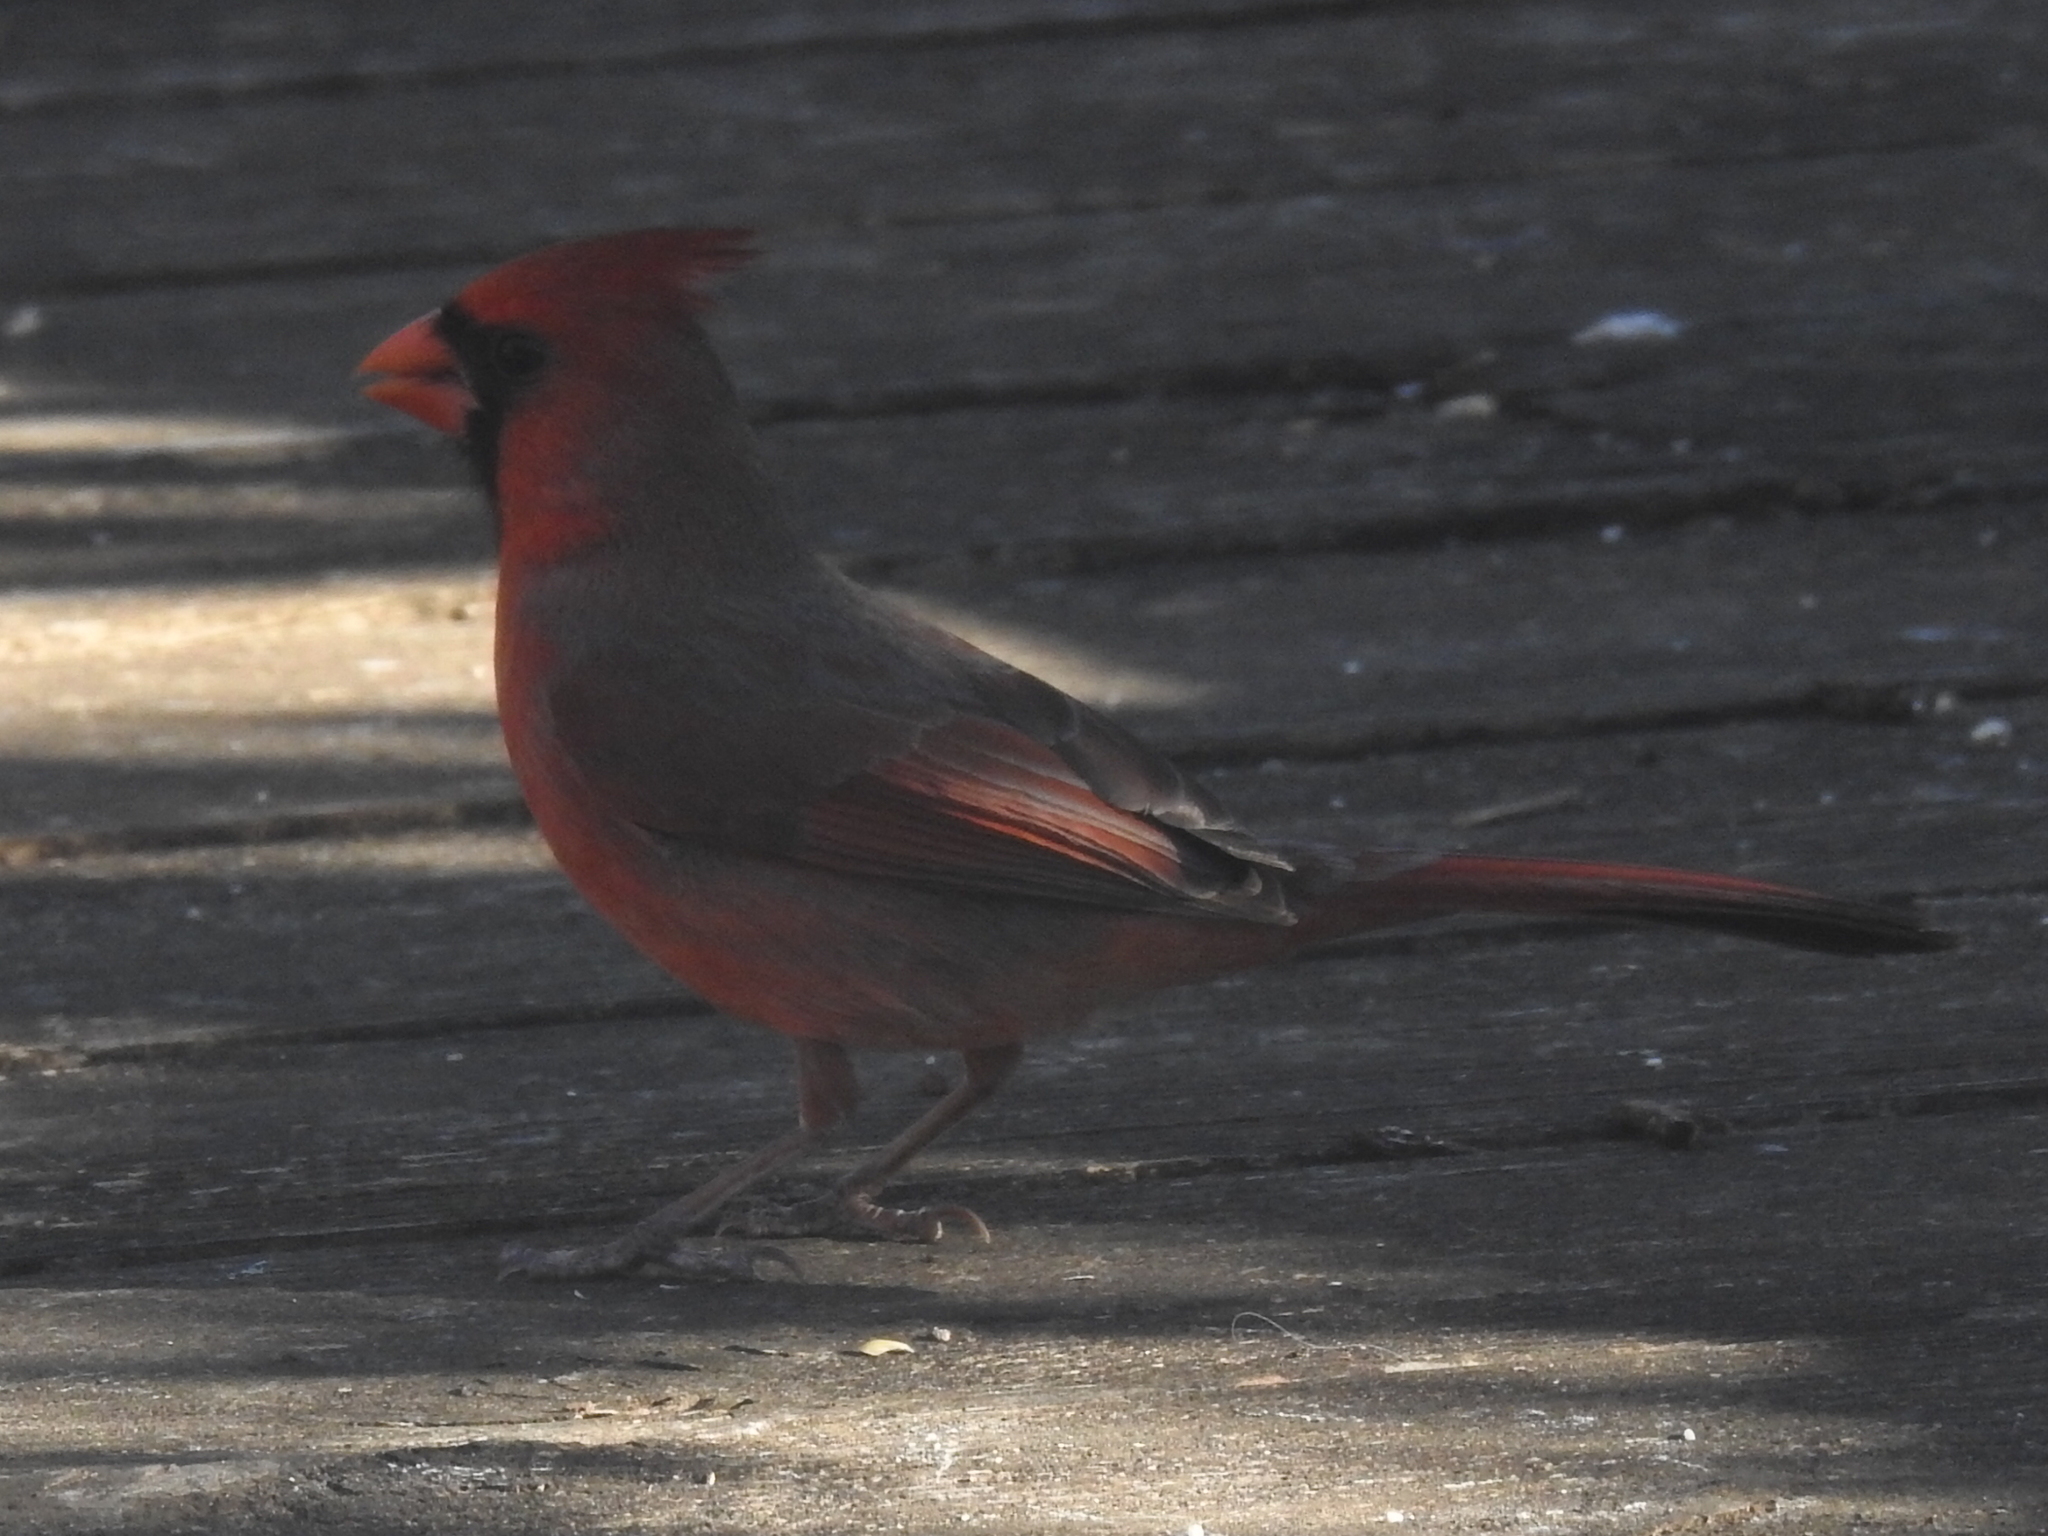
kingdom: Animalia
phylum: Chordata
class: Aves
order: Passeriformes
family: Cardinalidae
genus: Cardinalis
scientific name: Cardinalis cardinalis
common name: Northern cardinal
